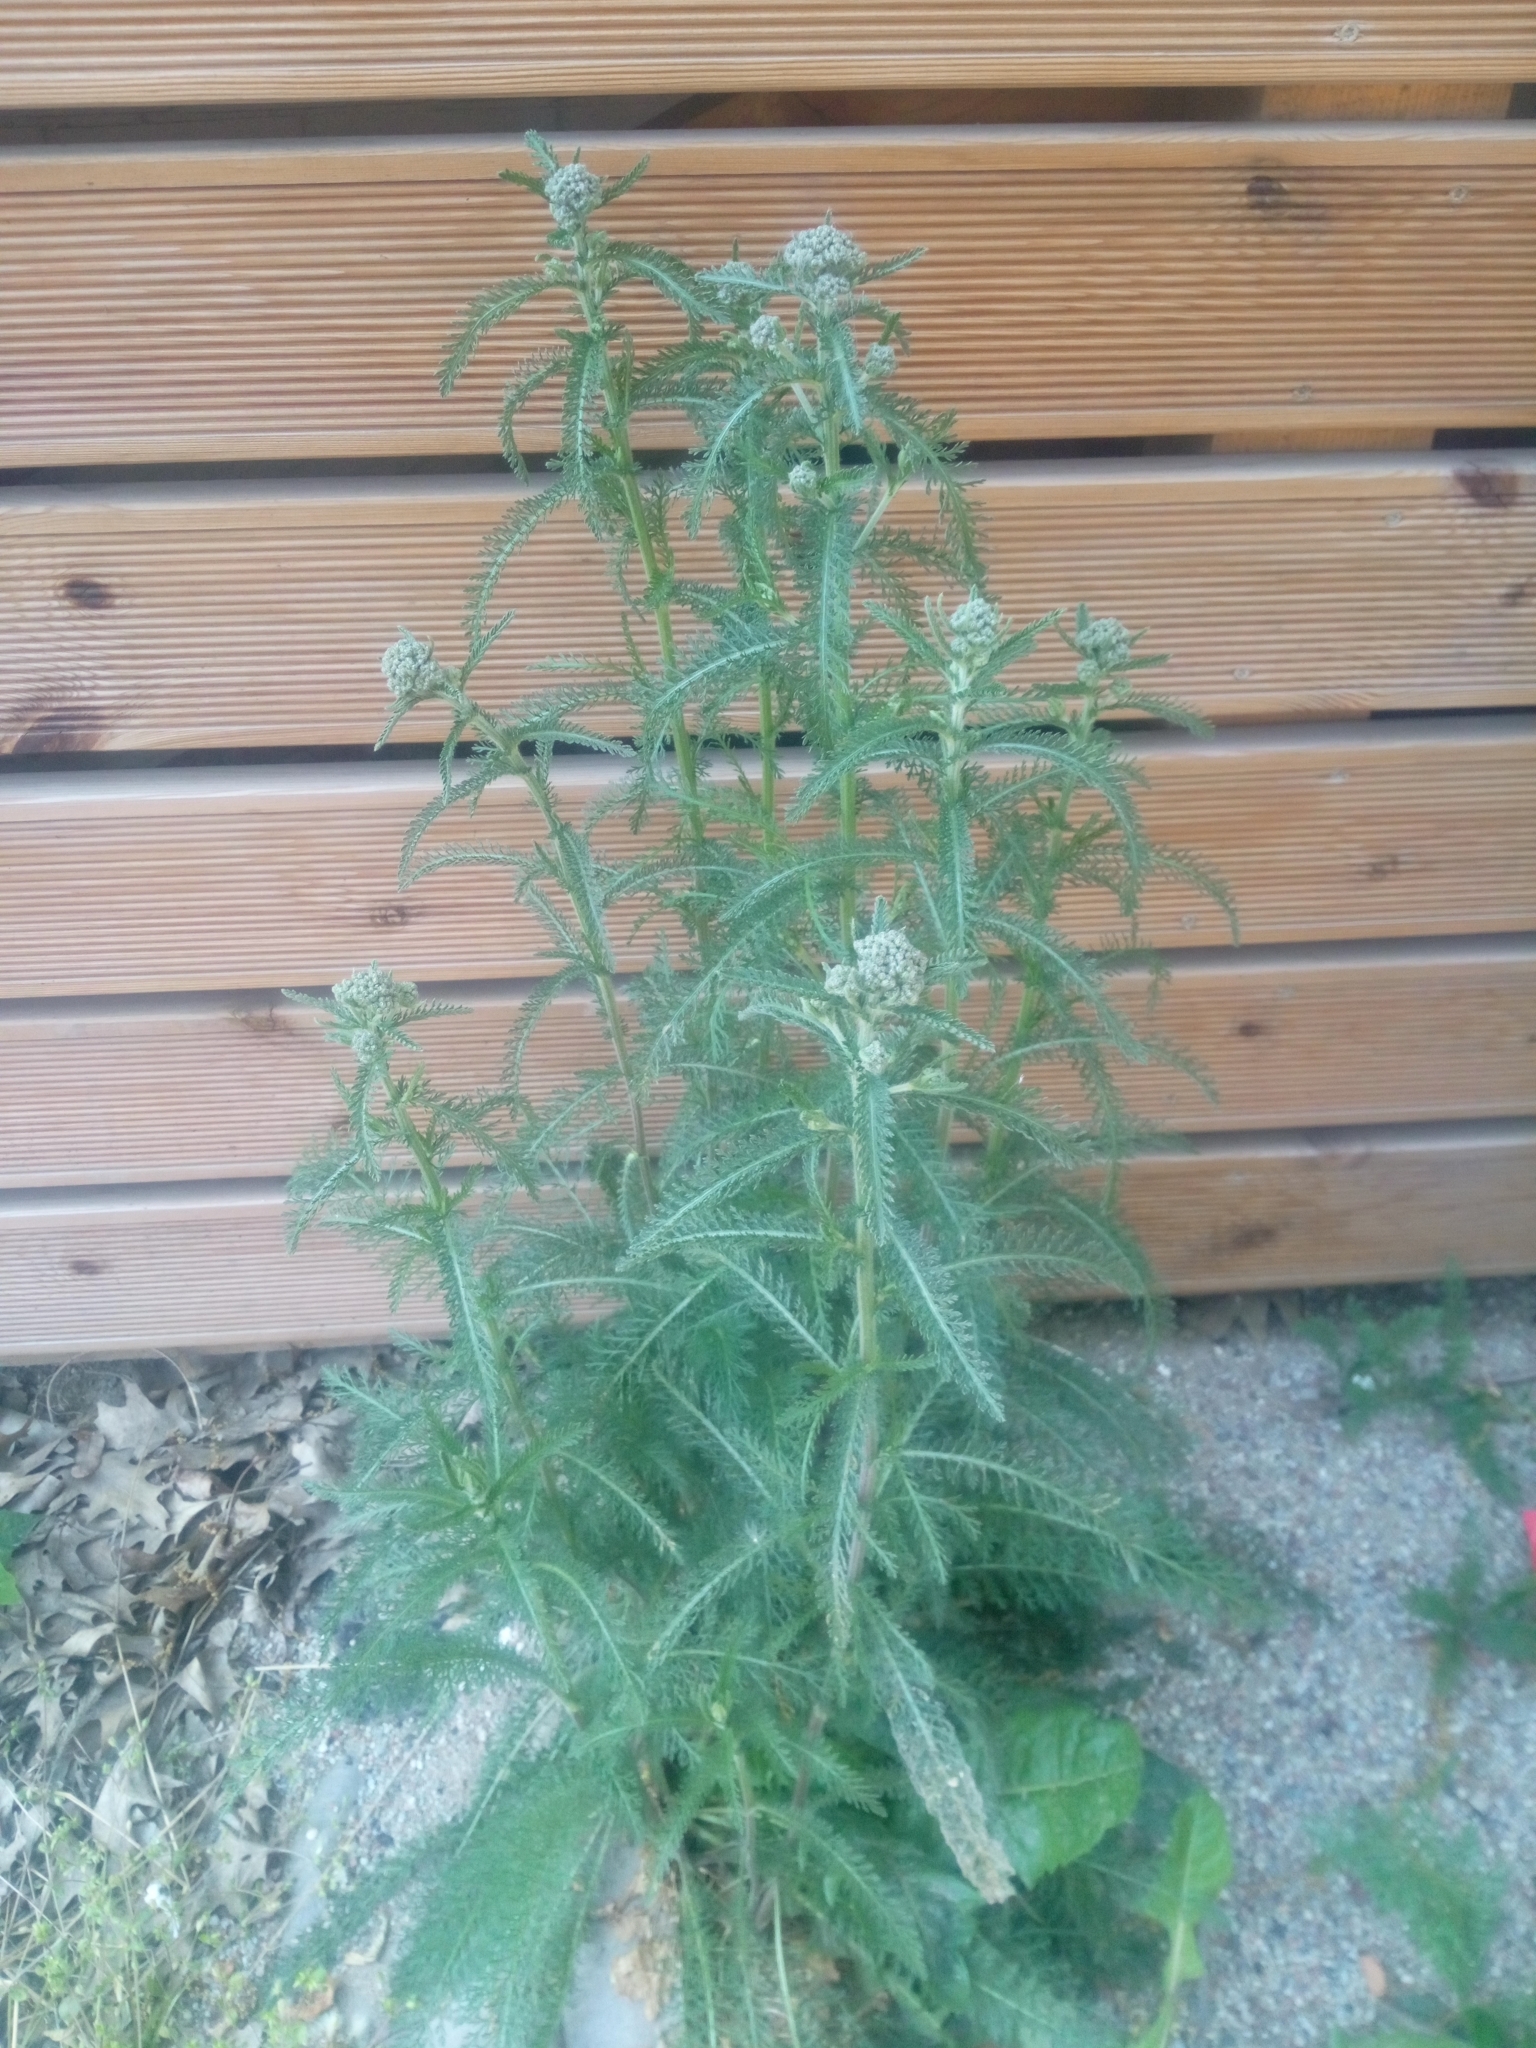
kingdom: Plantae
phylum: Tracheophyta
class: Magnoliopsida
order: Asterales
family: Asteraceae
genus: Achillea
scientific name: Achillea millefolium
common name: Yarrow
